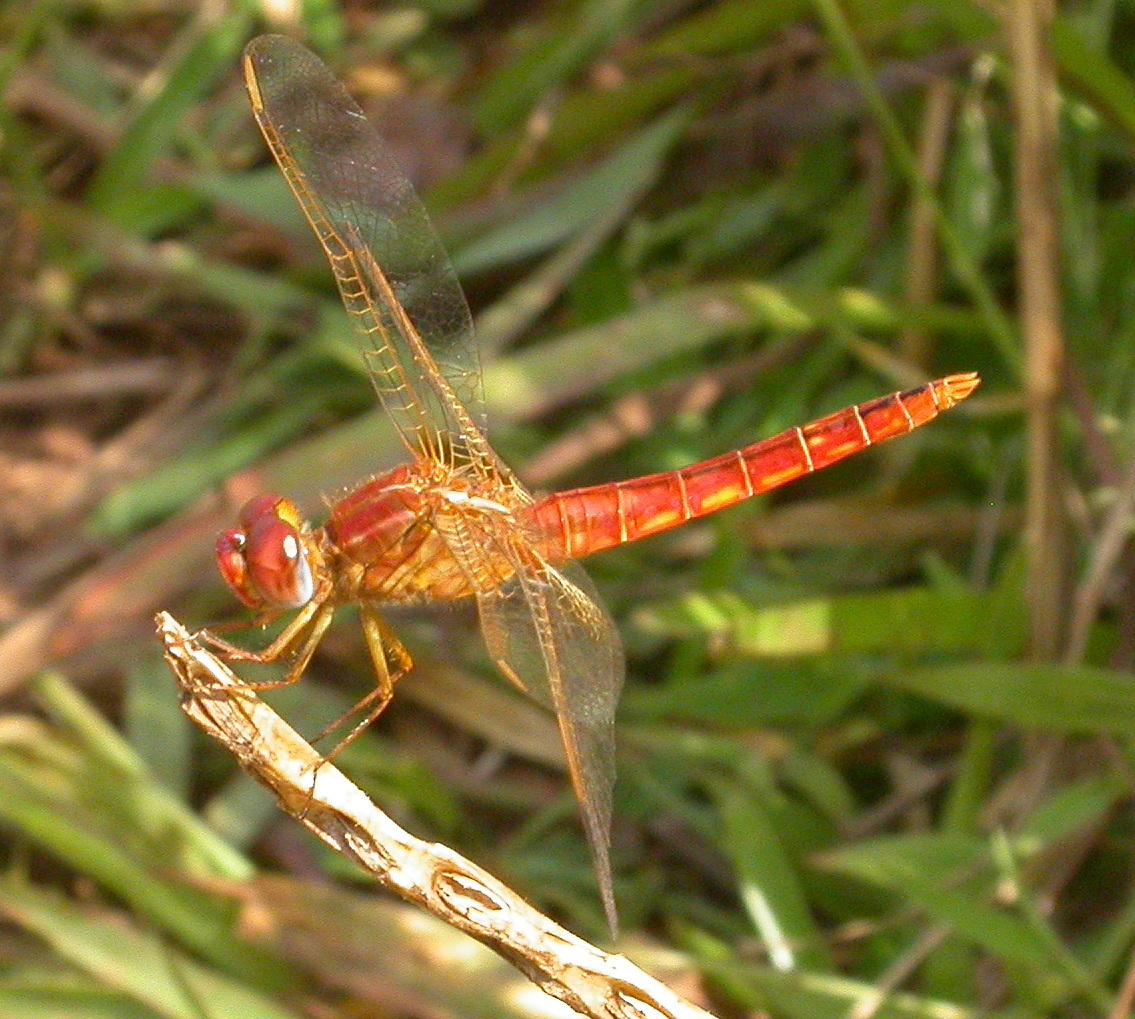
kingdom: Animalia
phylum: Arthropoda
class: Insecta
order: Odonata
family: Libellulidae
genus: Crocothemis
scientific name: Crocothemis erythraea
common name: Scarlet dragonfly
